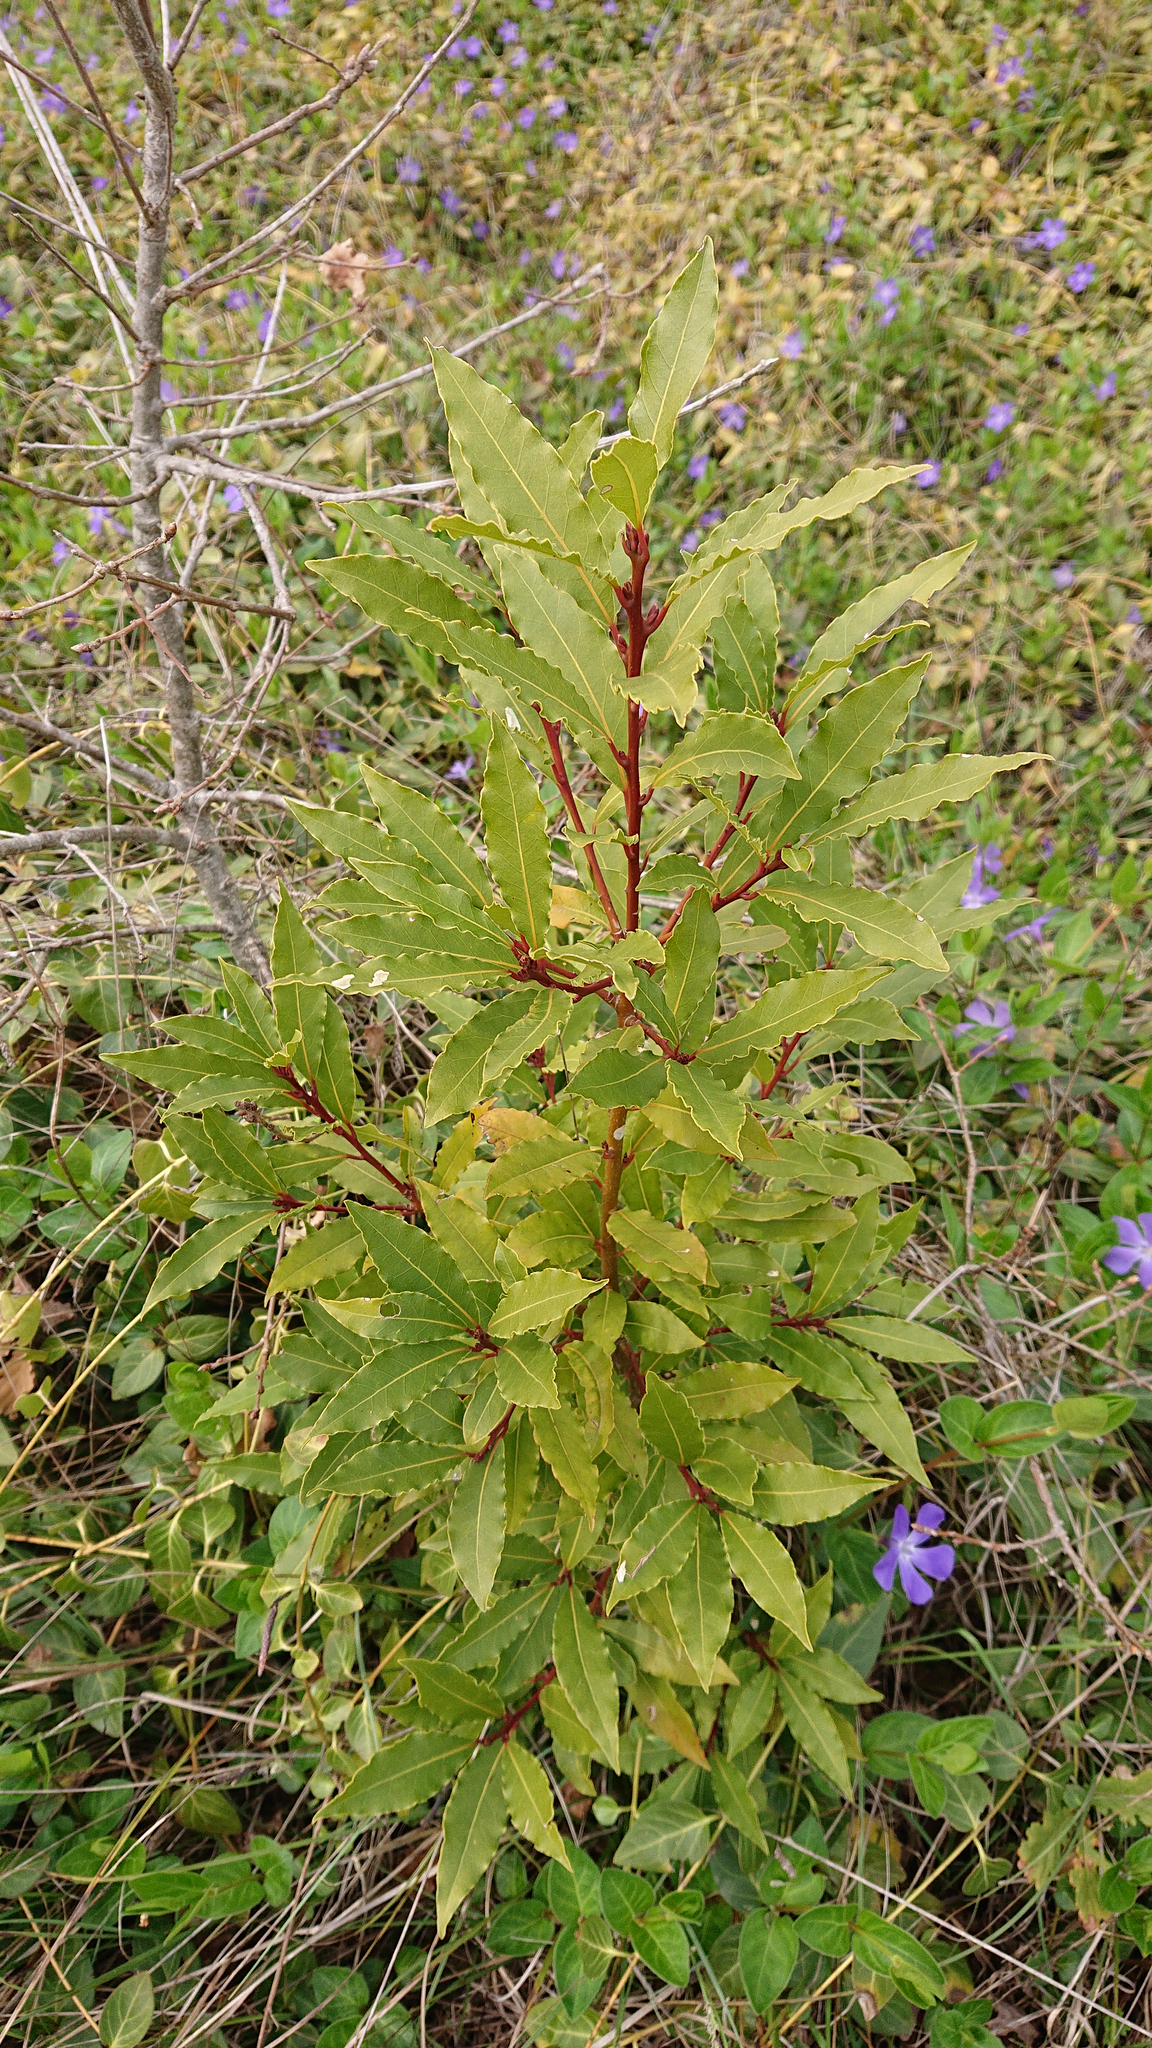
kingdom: Plantae
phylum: Tracheophyta
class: Magnoliopsida
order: Laurales
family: Lauraceae
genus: Laurus
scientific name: Laurus nobilis
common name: Bay
